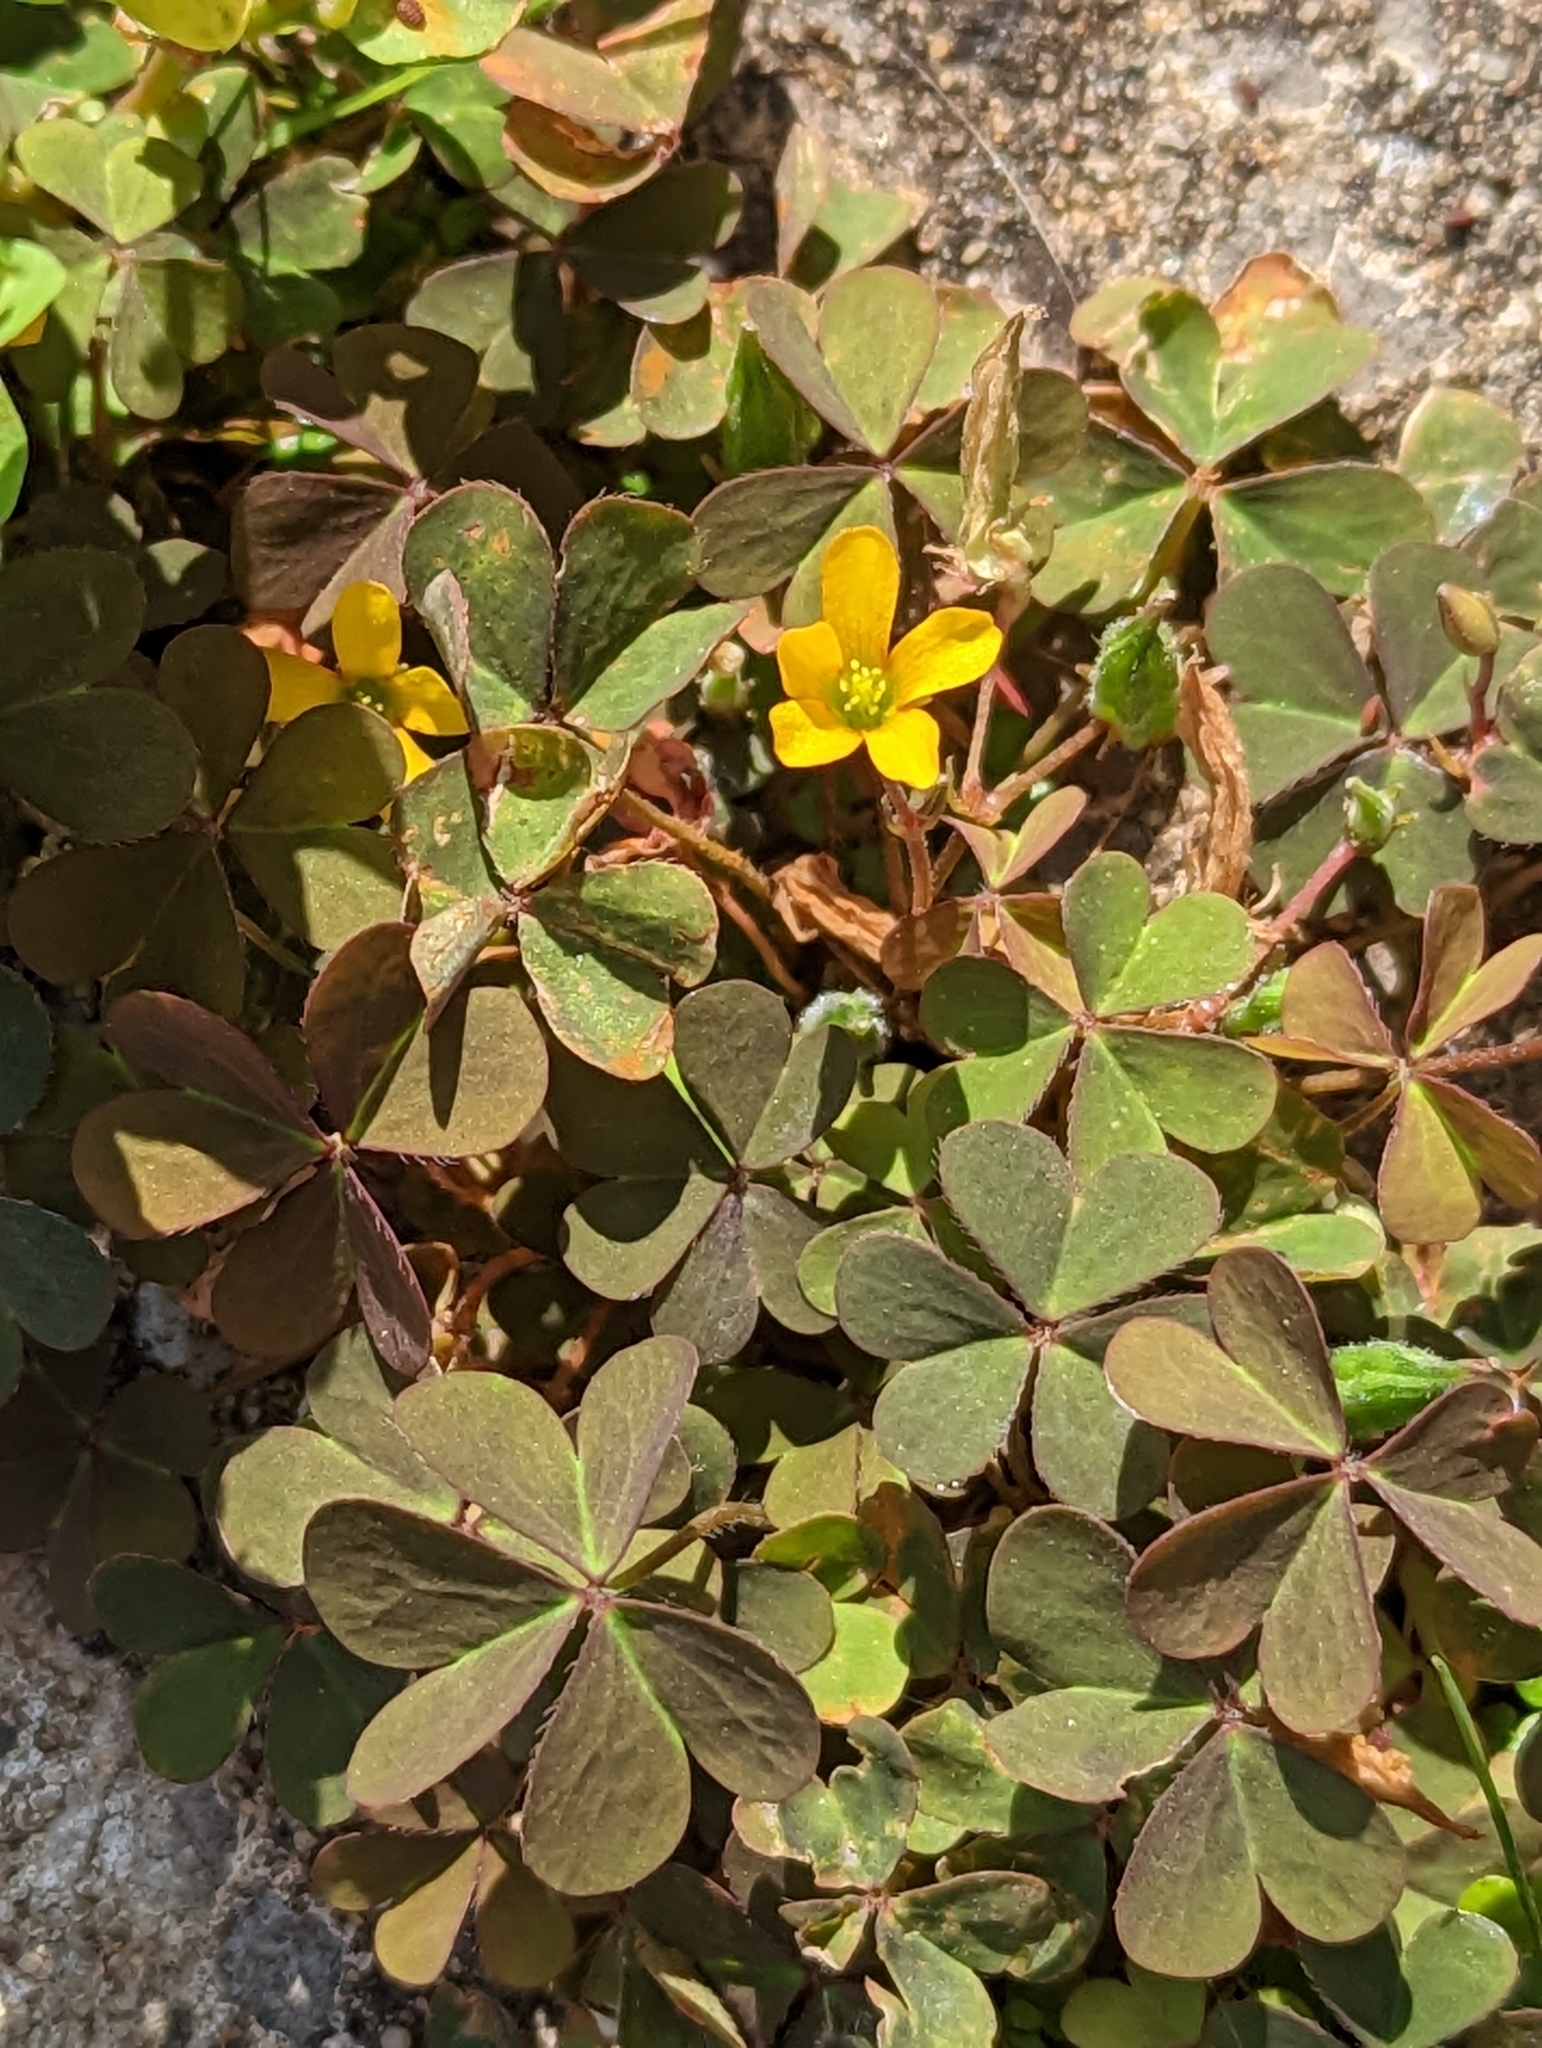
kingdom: Plantae
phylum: Tracheophyta
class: Magnoliopsida
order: Oxalidales
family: Oxalidaceae
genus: Oxalis
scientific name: Oxalis corniculata
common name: Procumbent yellow-sorrel
